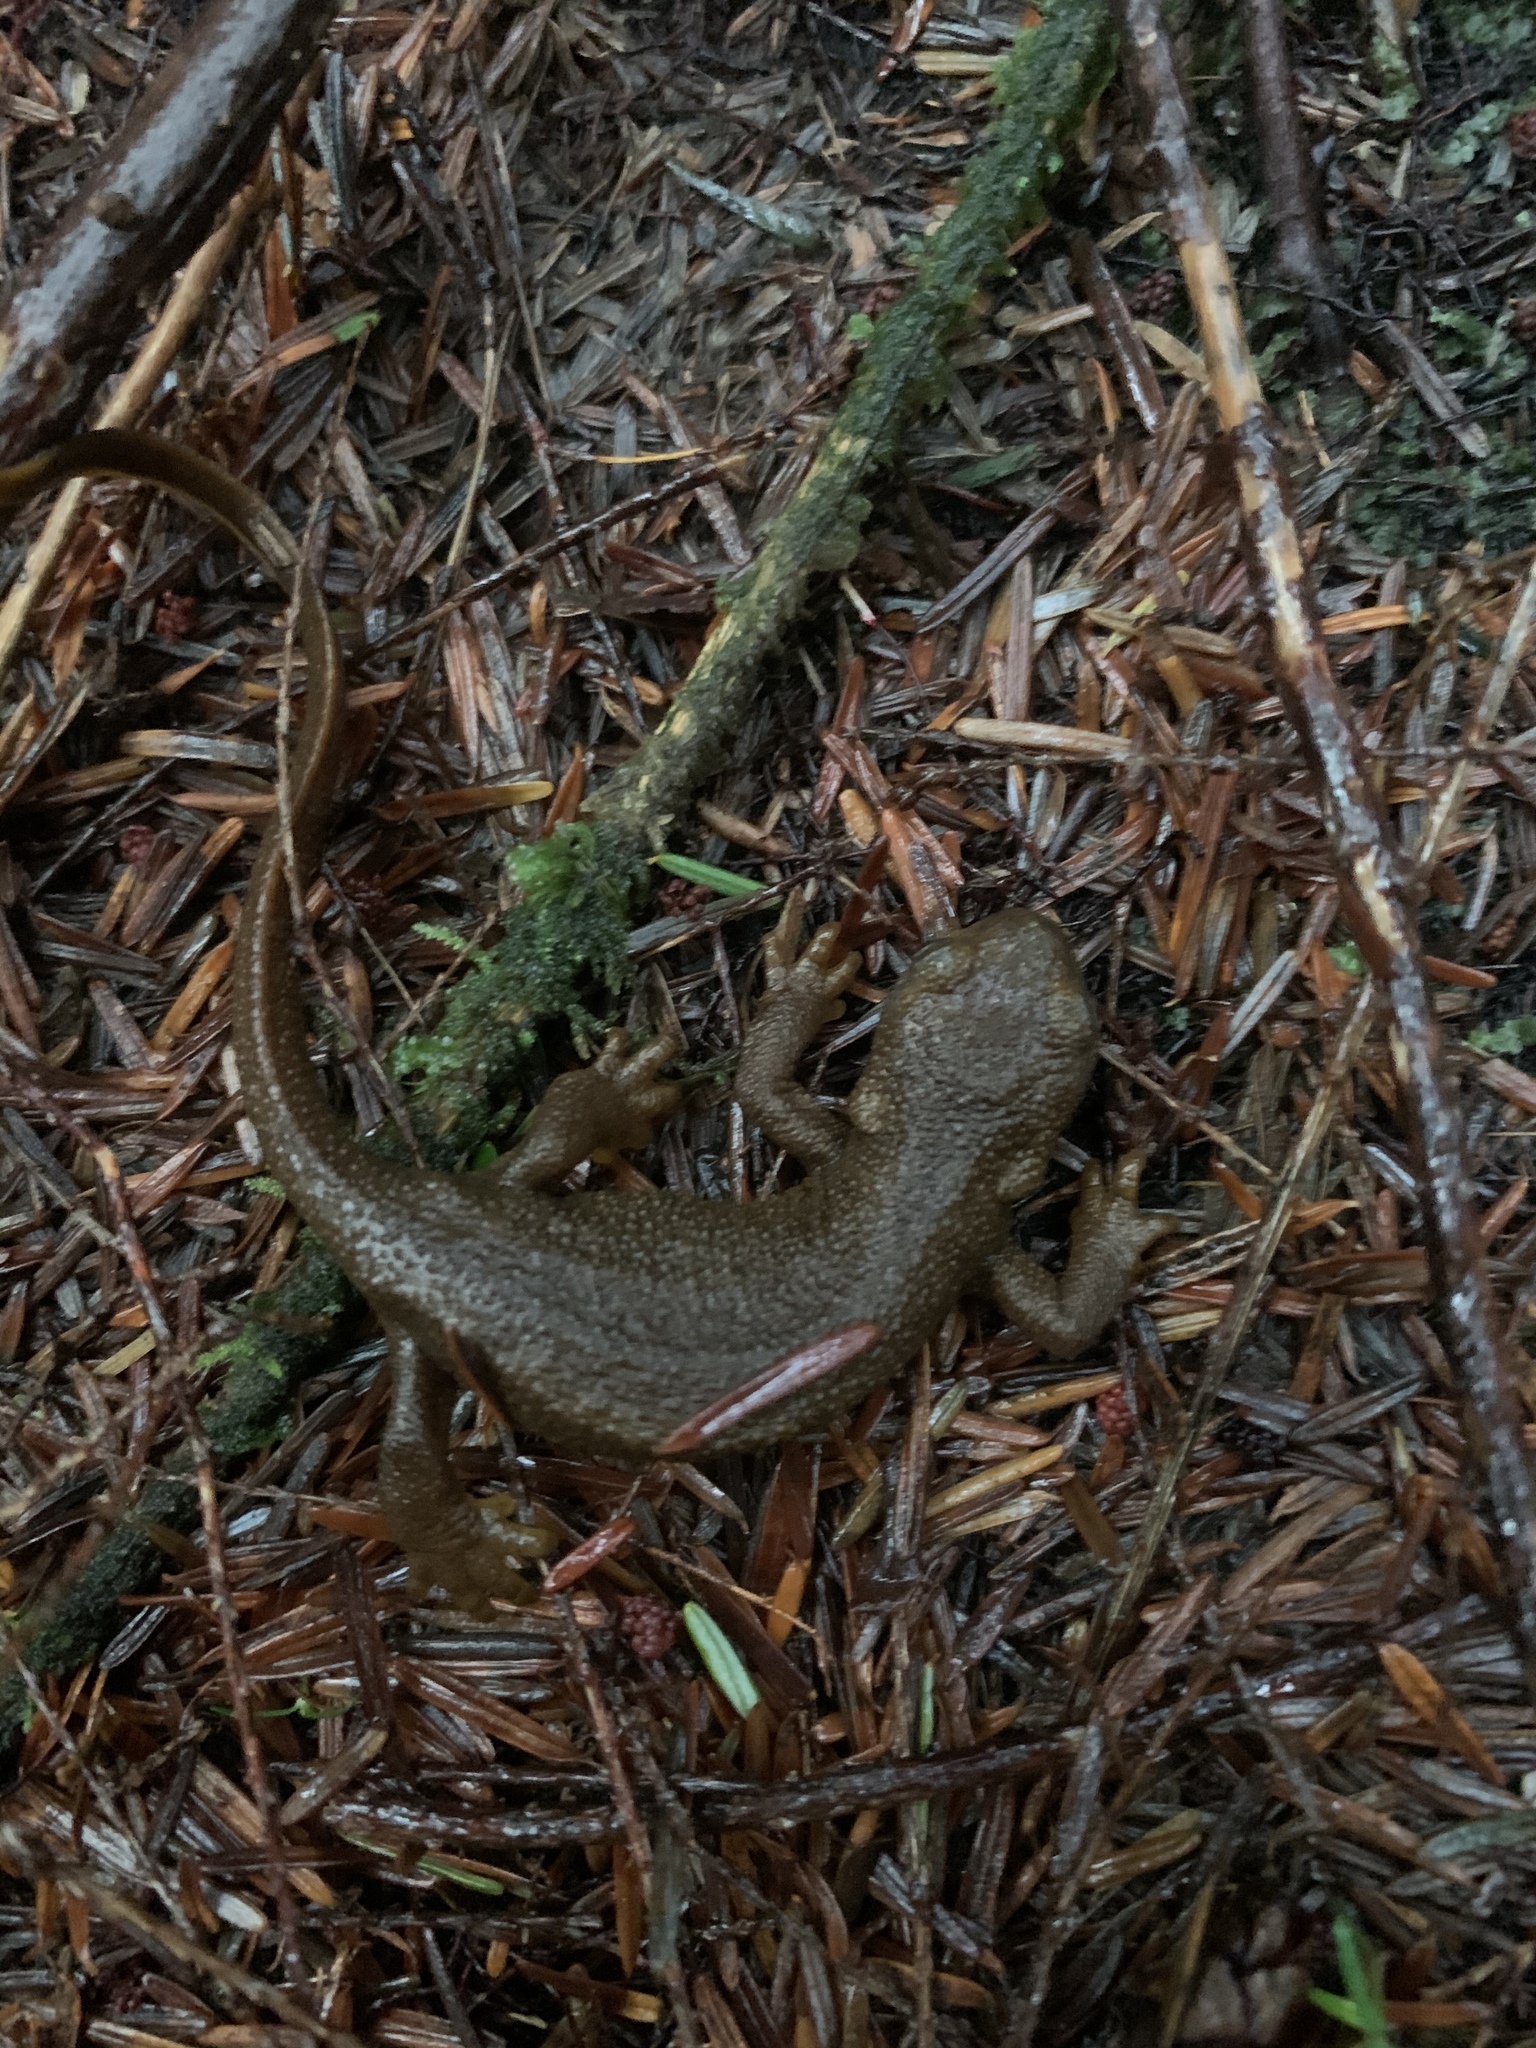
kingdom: Animalia
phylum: Chordata
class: Amphibia
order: Caudata
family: Salamandridae
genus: Taricha
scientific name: Taricha granulosa
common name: Roughskin newt
